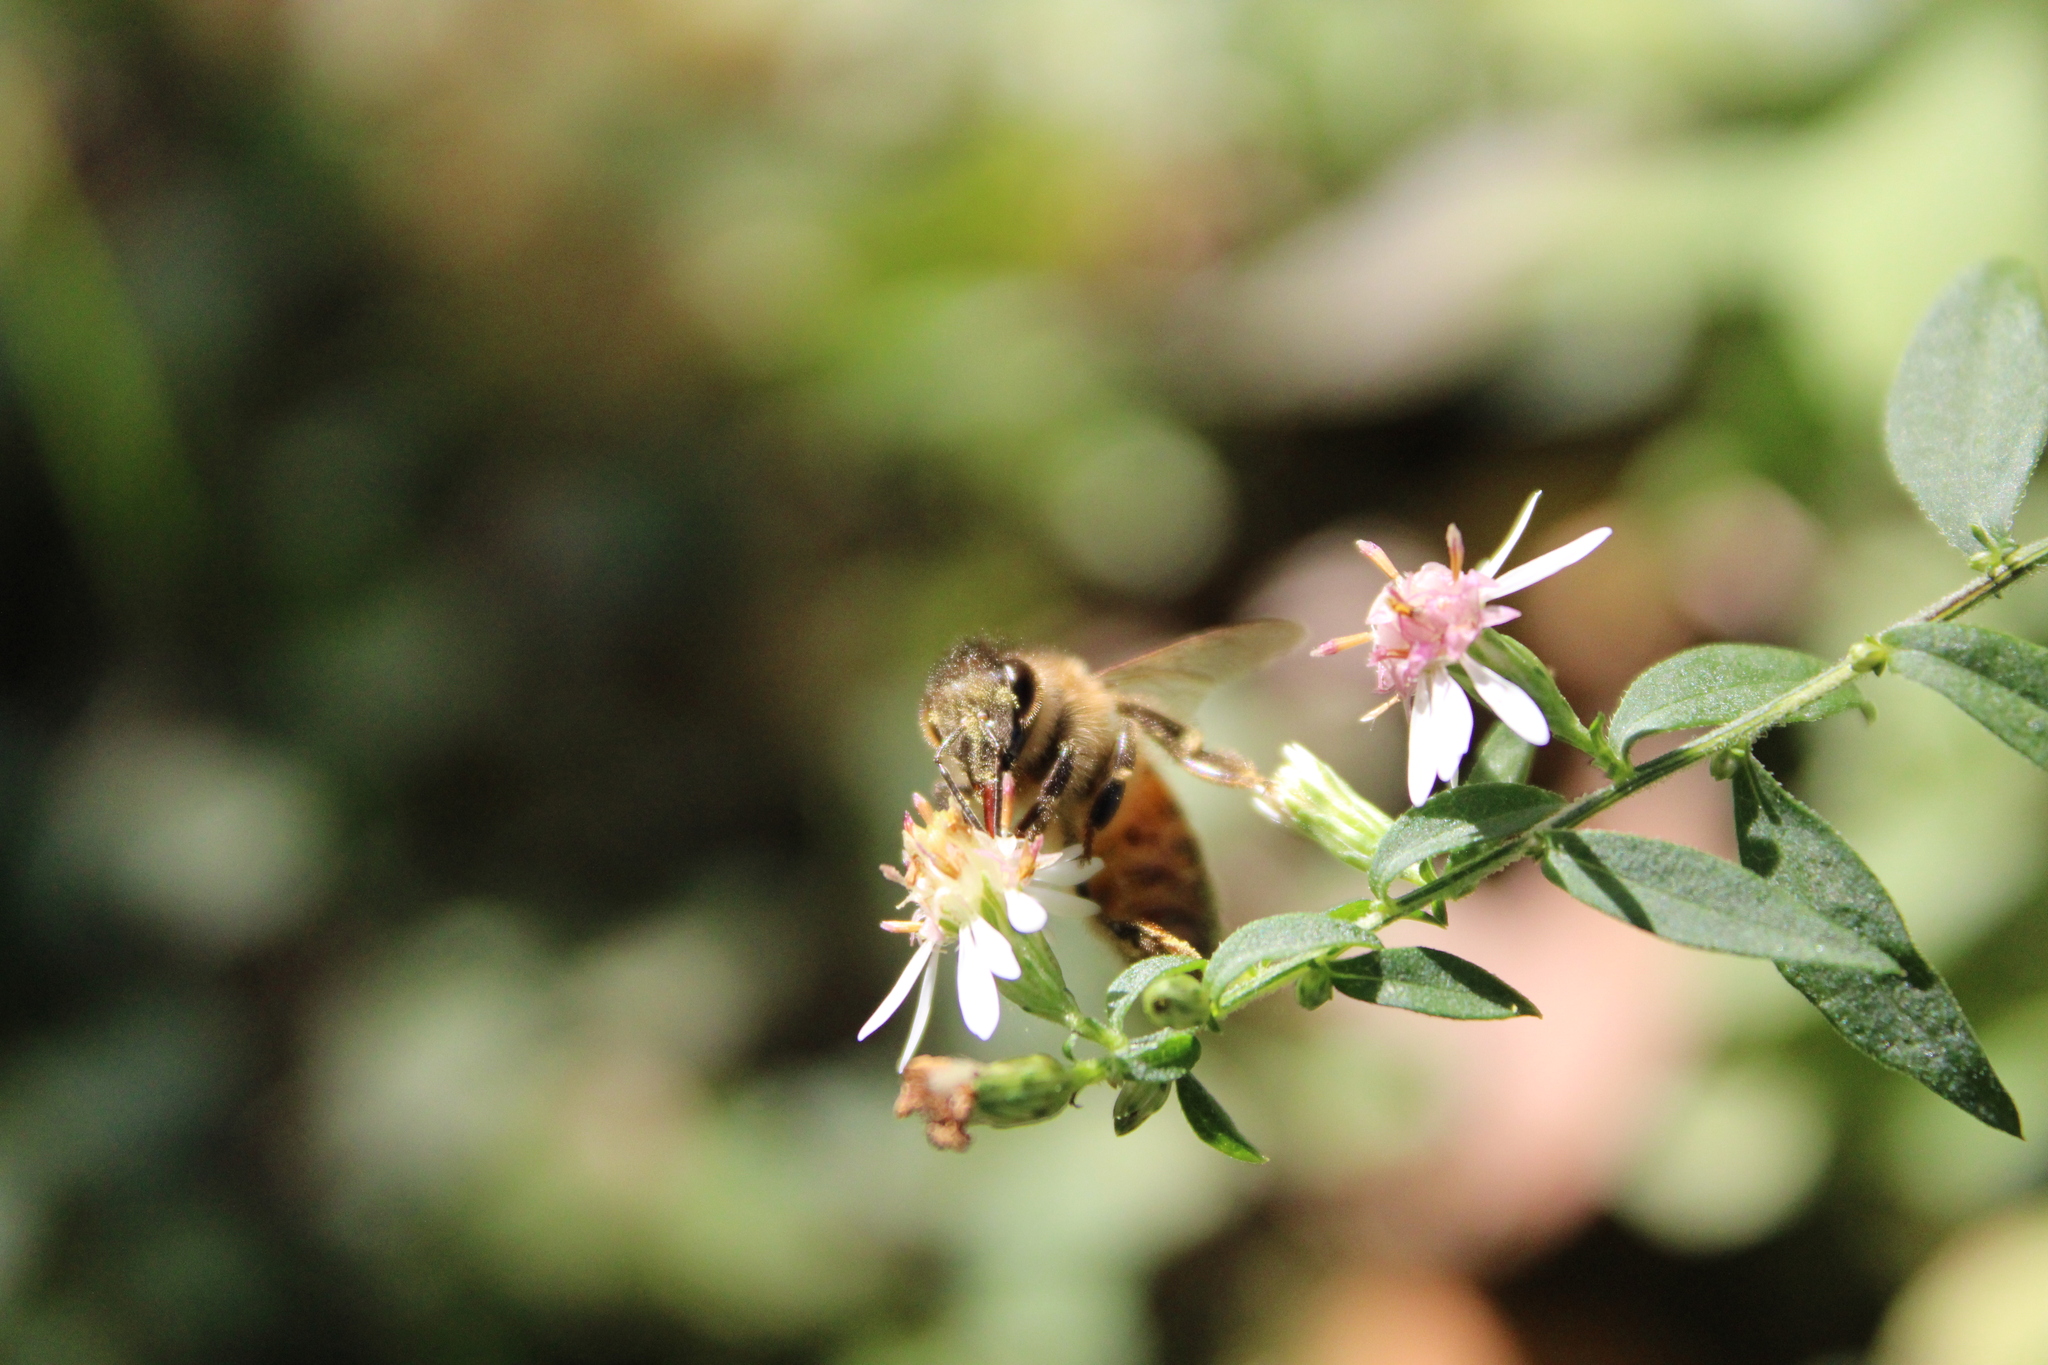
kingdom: Animalia
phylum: Arthropoda
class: Insecta
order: Hymenoptera
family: Apidae
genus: Apis
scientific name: Apis mellifera
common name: Honey bee
